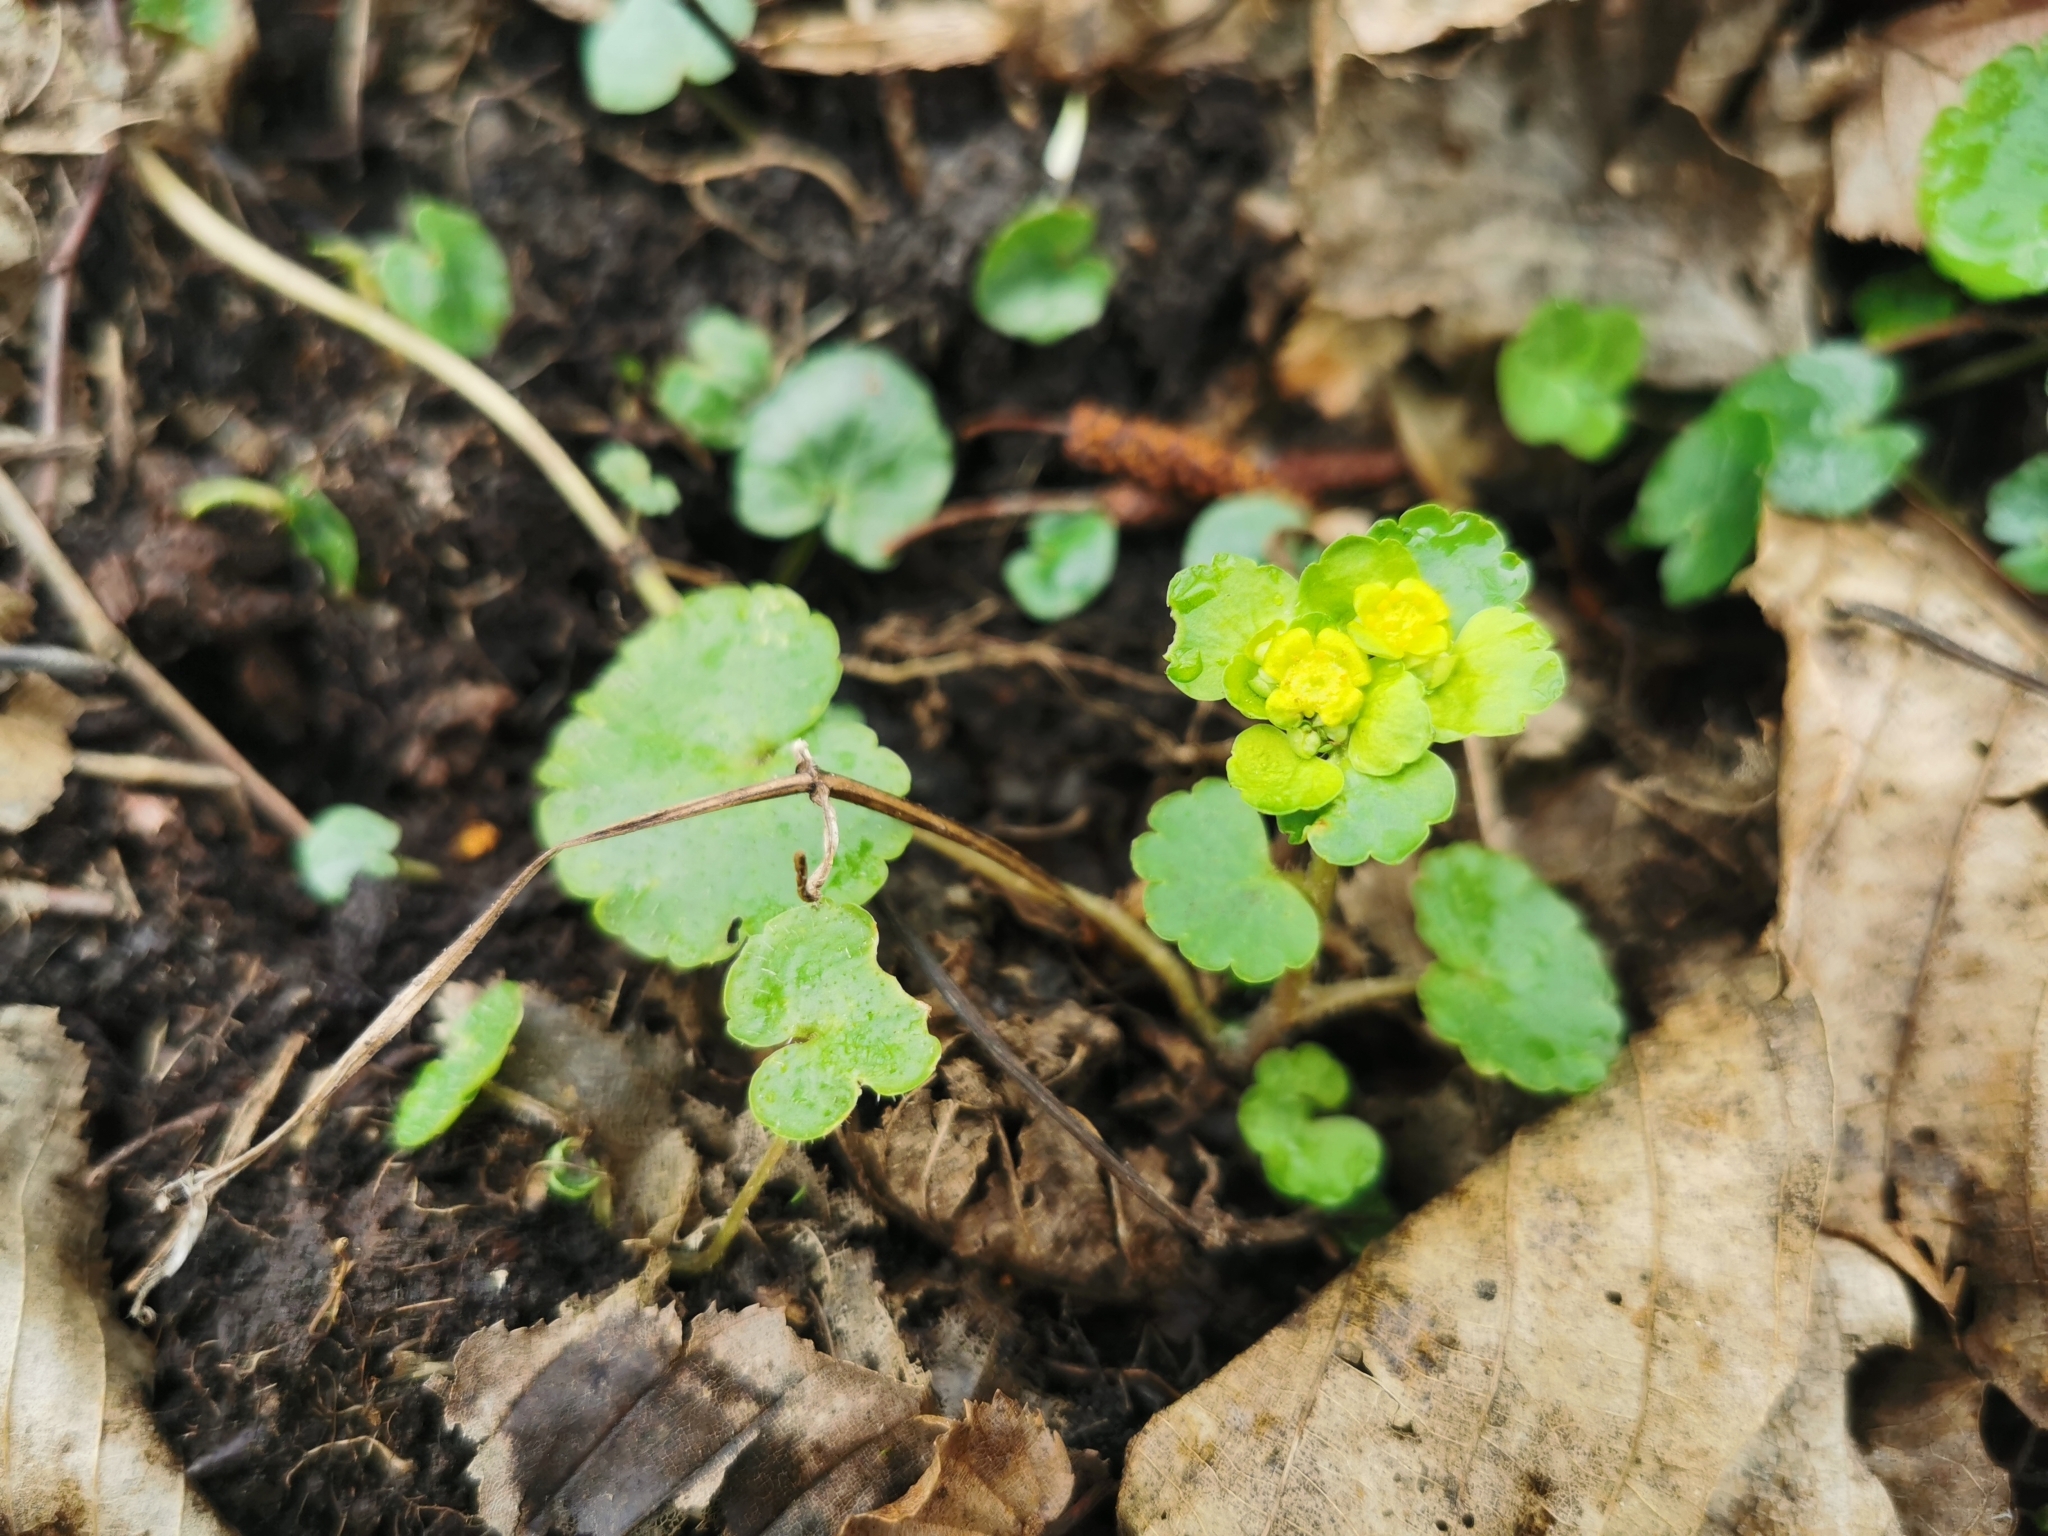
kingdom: Plantae
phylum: Tracheophyta
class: Magnoliopsida
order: Saxifragales
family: Saxifragaceae
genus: Chrysosplenium
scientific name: Chrysosplenium alternifolium
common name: Alternate-leaved golden-saxifrage
